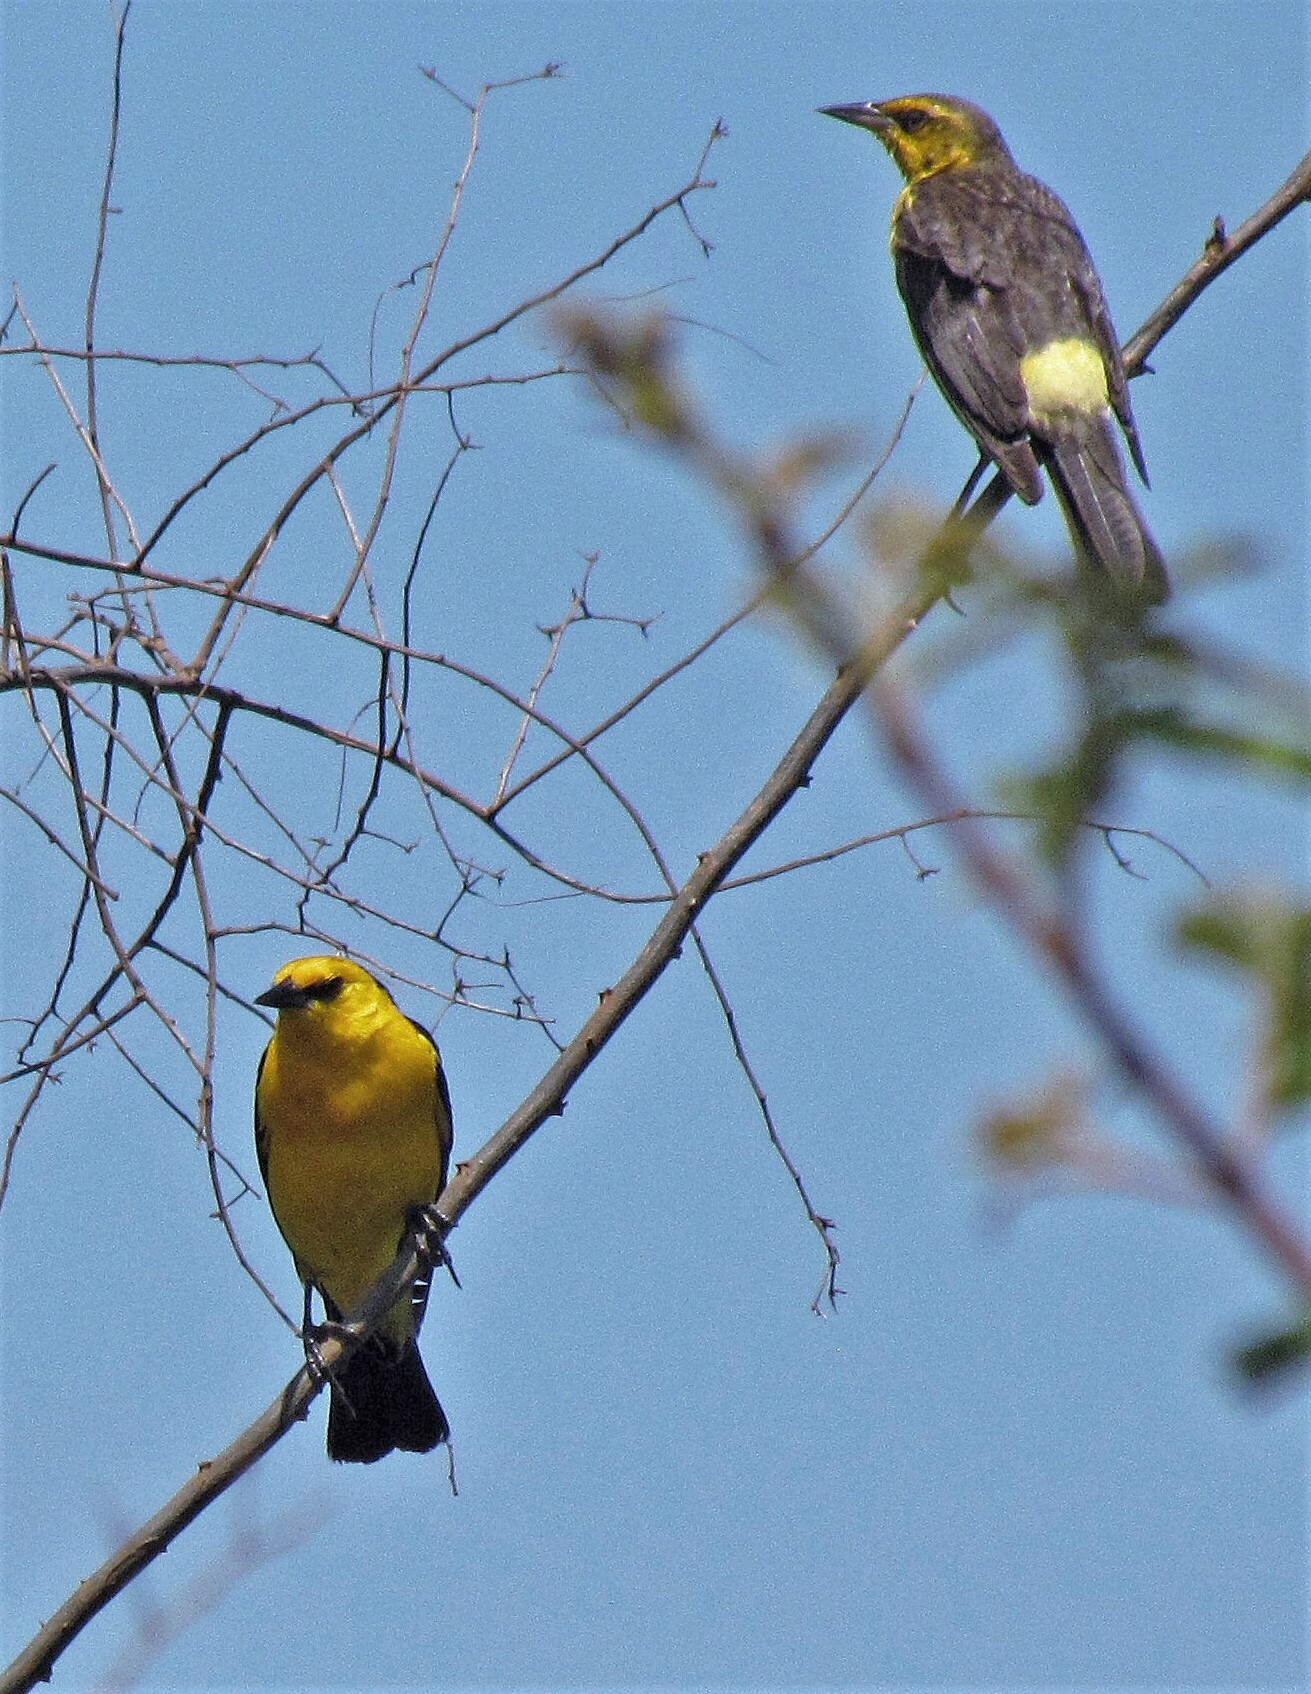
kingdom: Animalia
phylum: Chordata
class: Aves
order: Passeriformes
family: Icteridae
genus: Xanthopsar
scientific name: Xanthopsar flavus
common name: Saffron-cowled blackbird
